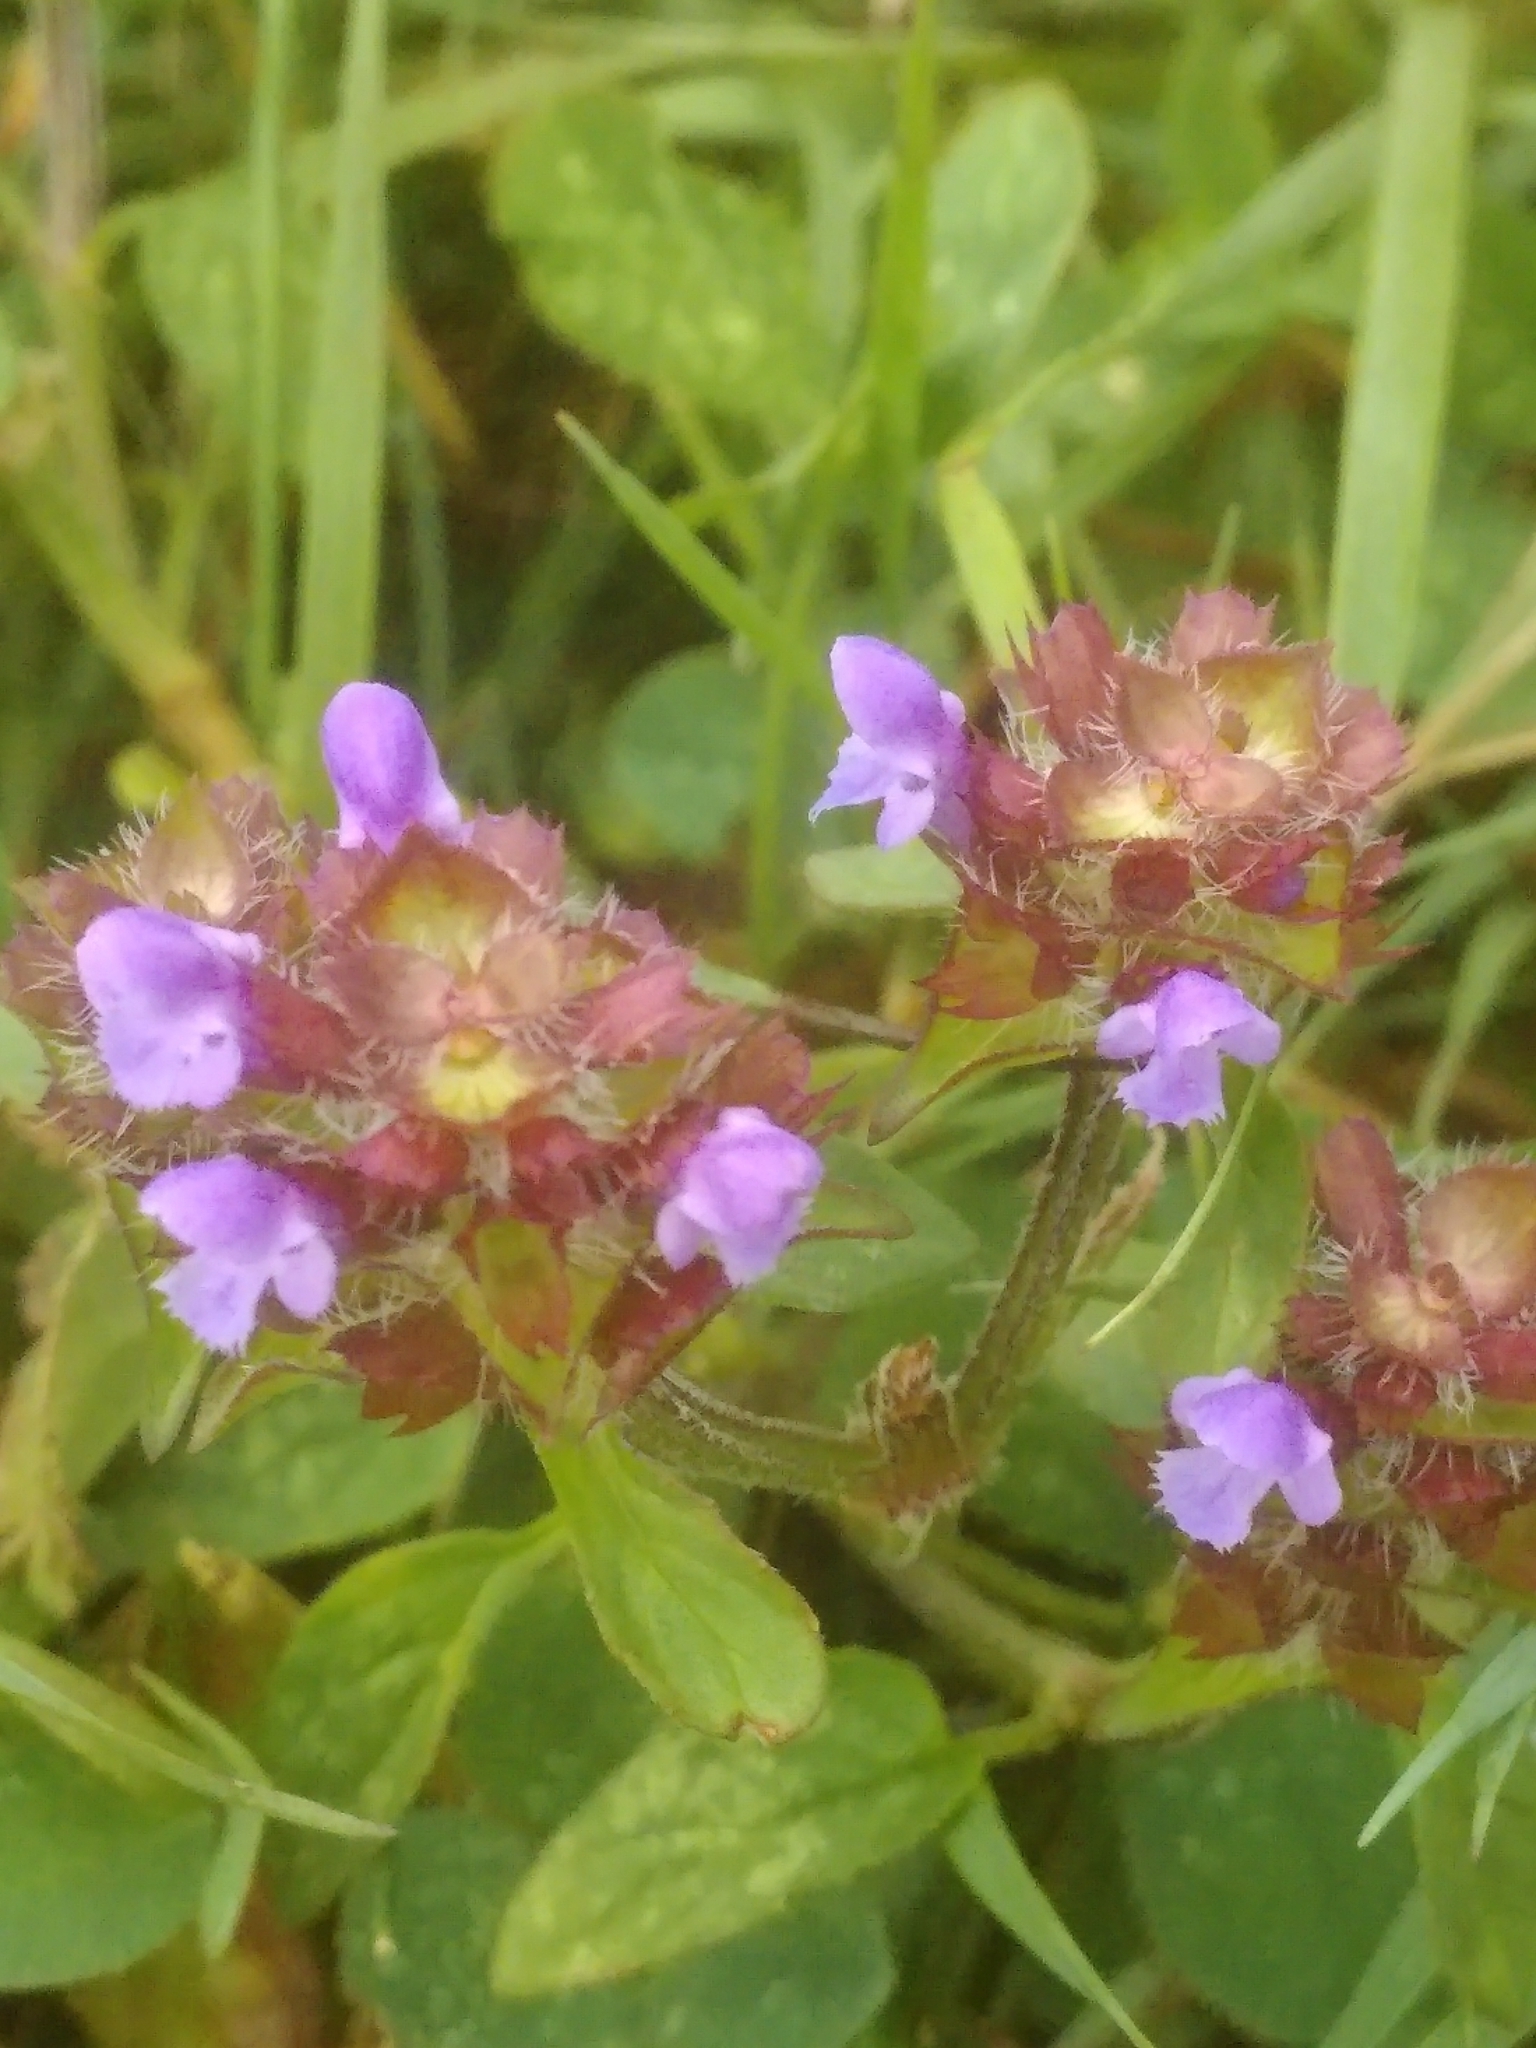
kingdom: Plantae
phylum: Tracheophyta
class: Magnoliopsida
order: Lamiales
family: Lamiaceae
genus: Prunella
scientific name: Prunella vulgaris
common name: Heal-all
